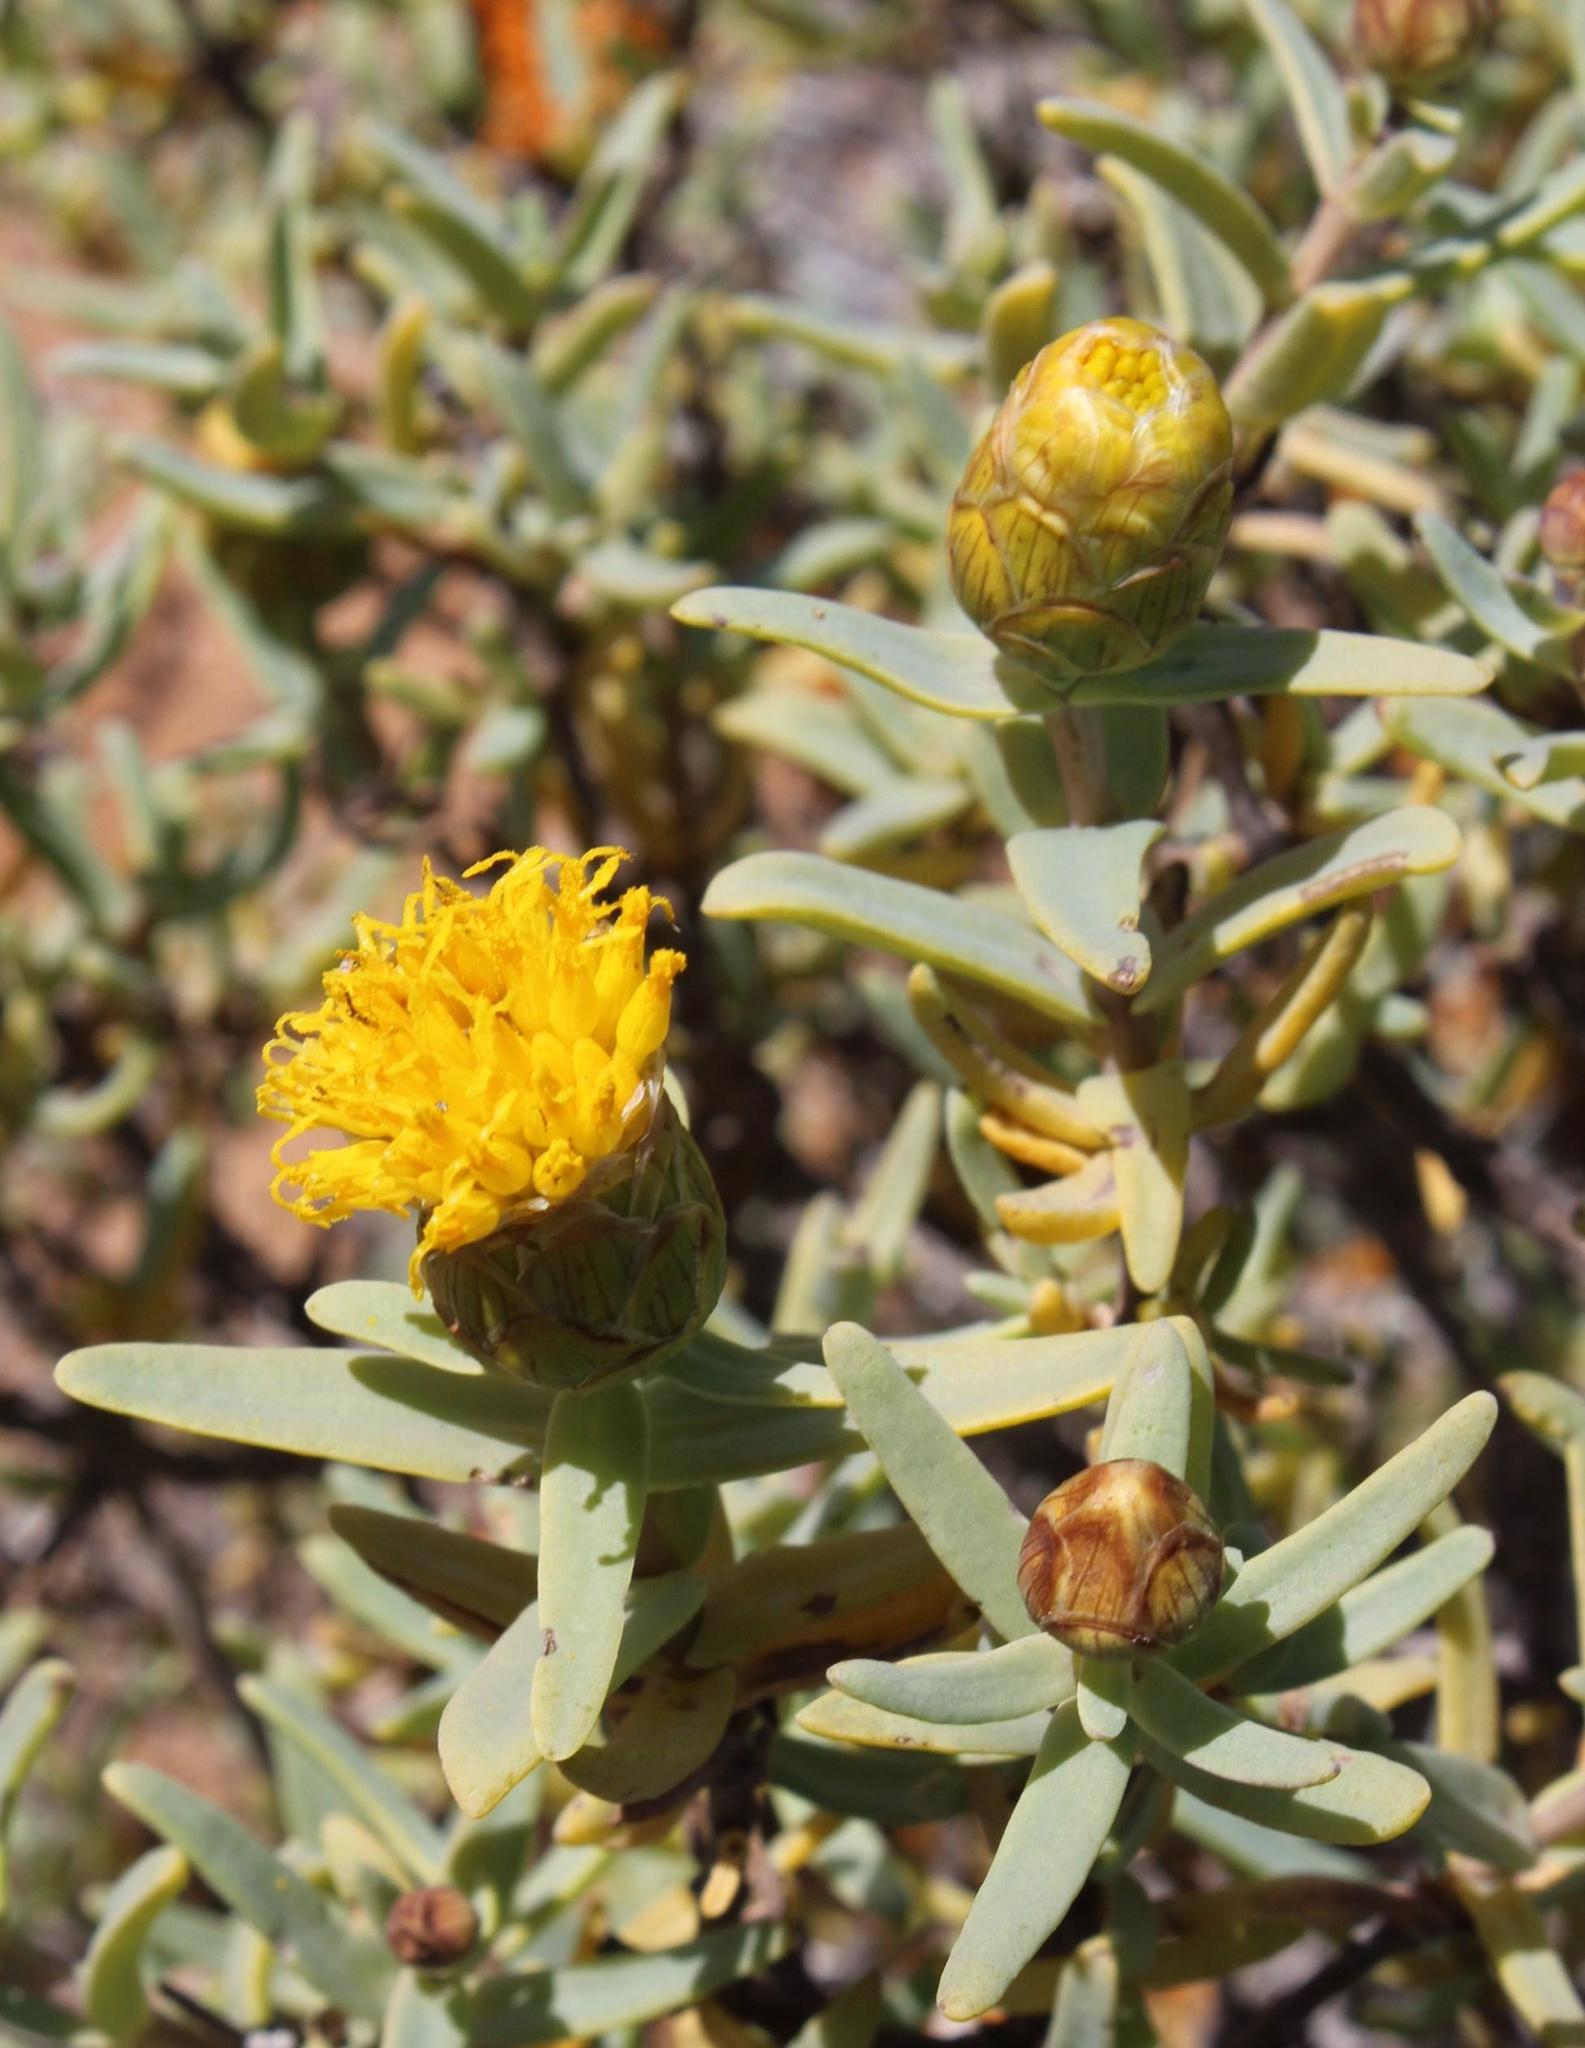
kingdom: Plantae
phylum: Tracheophyta
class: Magnoliopsida
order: Asterales
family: Asteraceae
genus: Pteronia
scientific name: Pteronia glabrata
